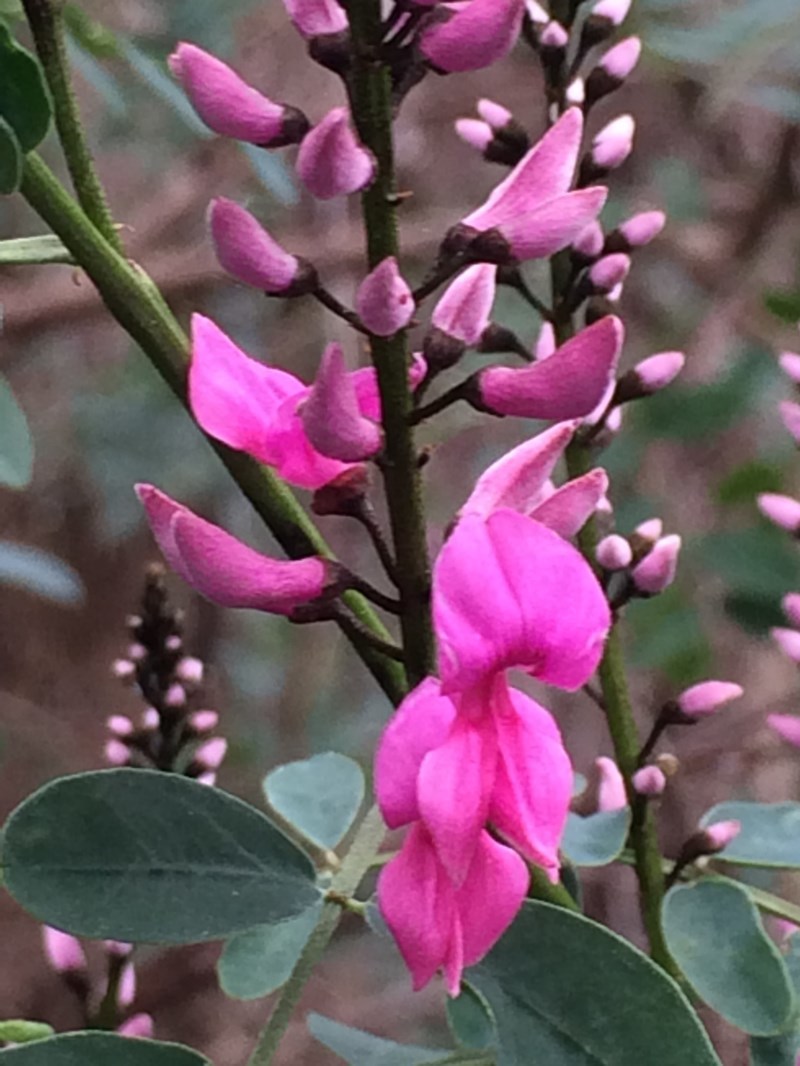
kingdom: Plantae
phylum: Tracheophyta
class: Magnoliopsida
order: Fabales
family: Fabaceae
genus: Indigofera
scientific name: Indigofera australis
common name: Australian indigo
